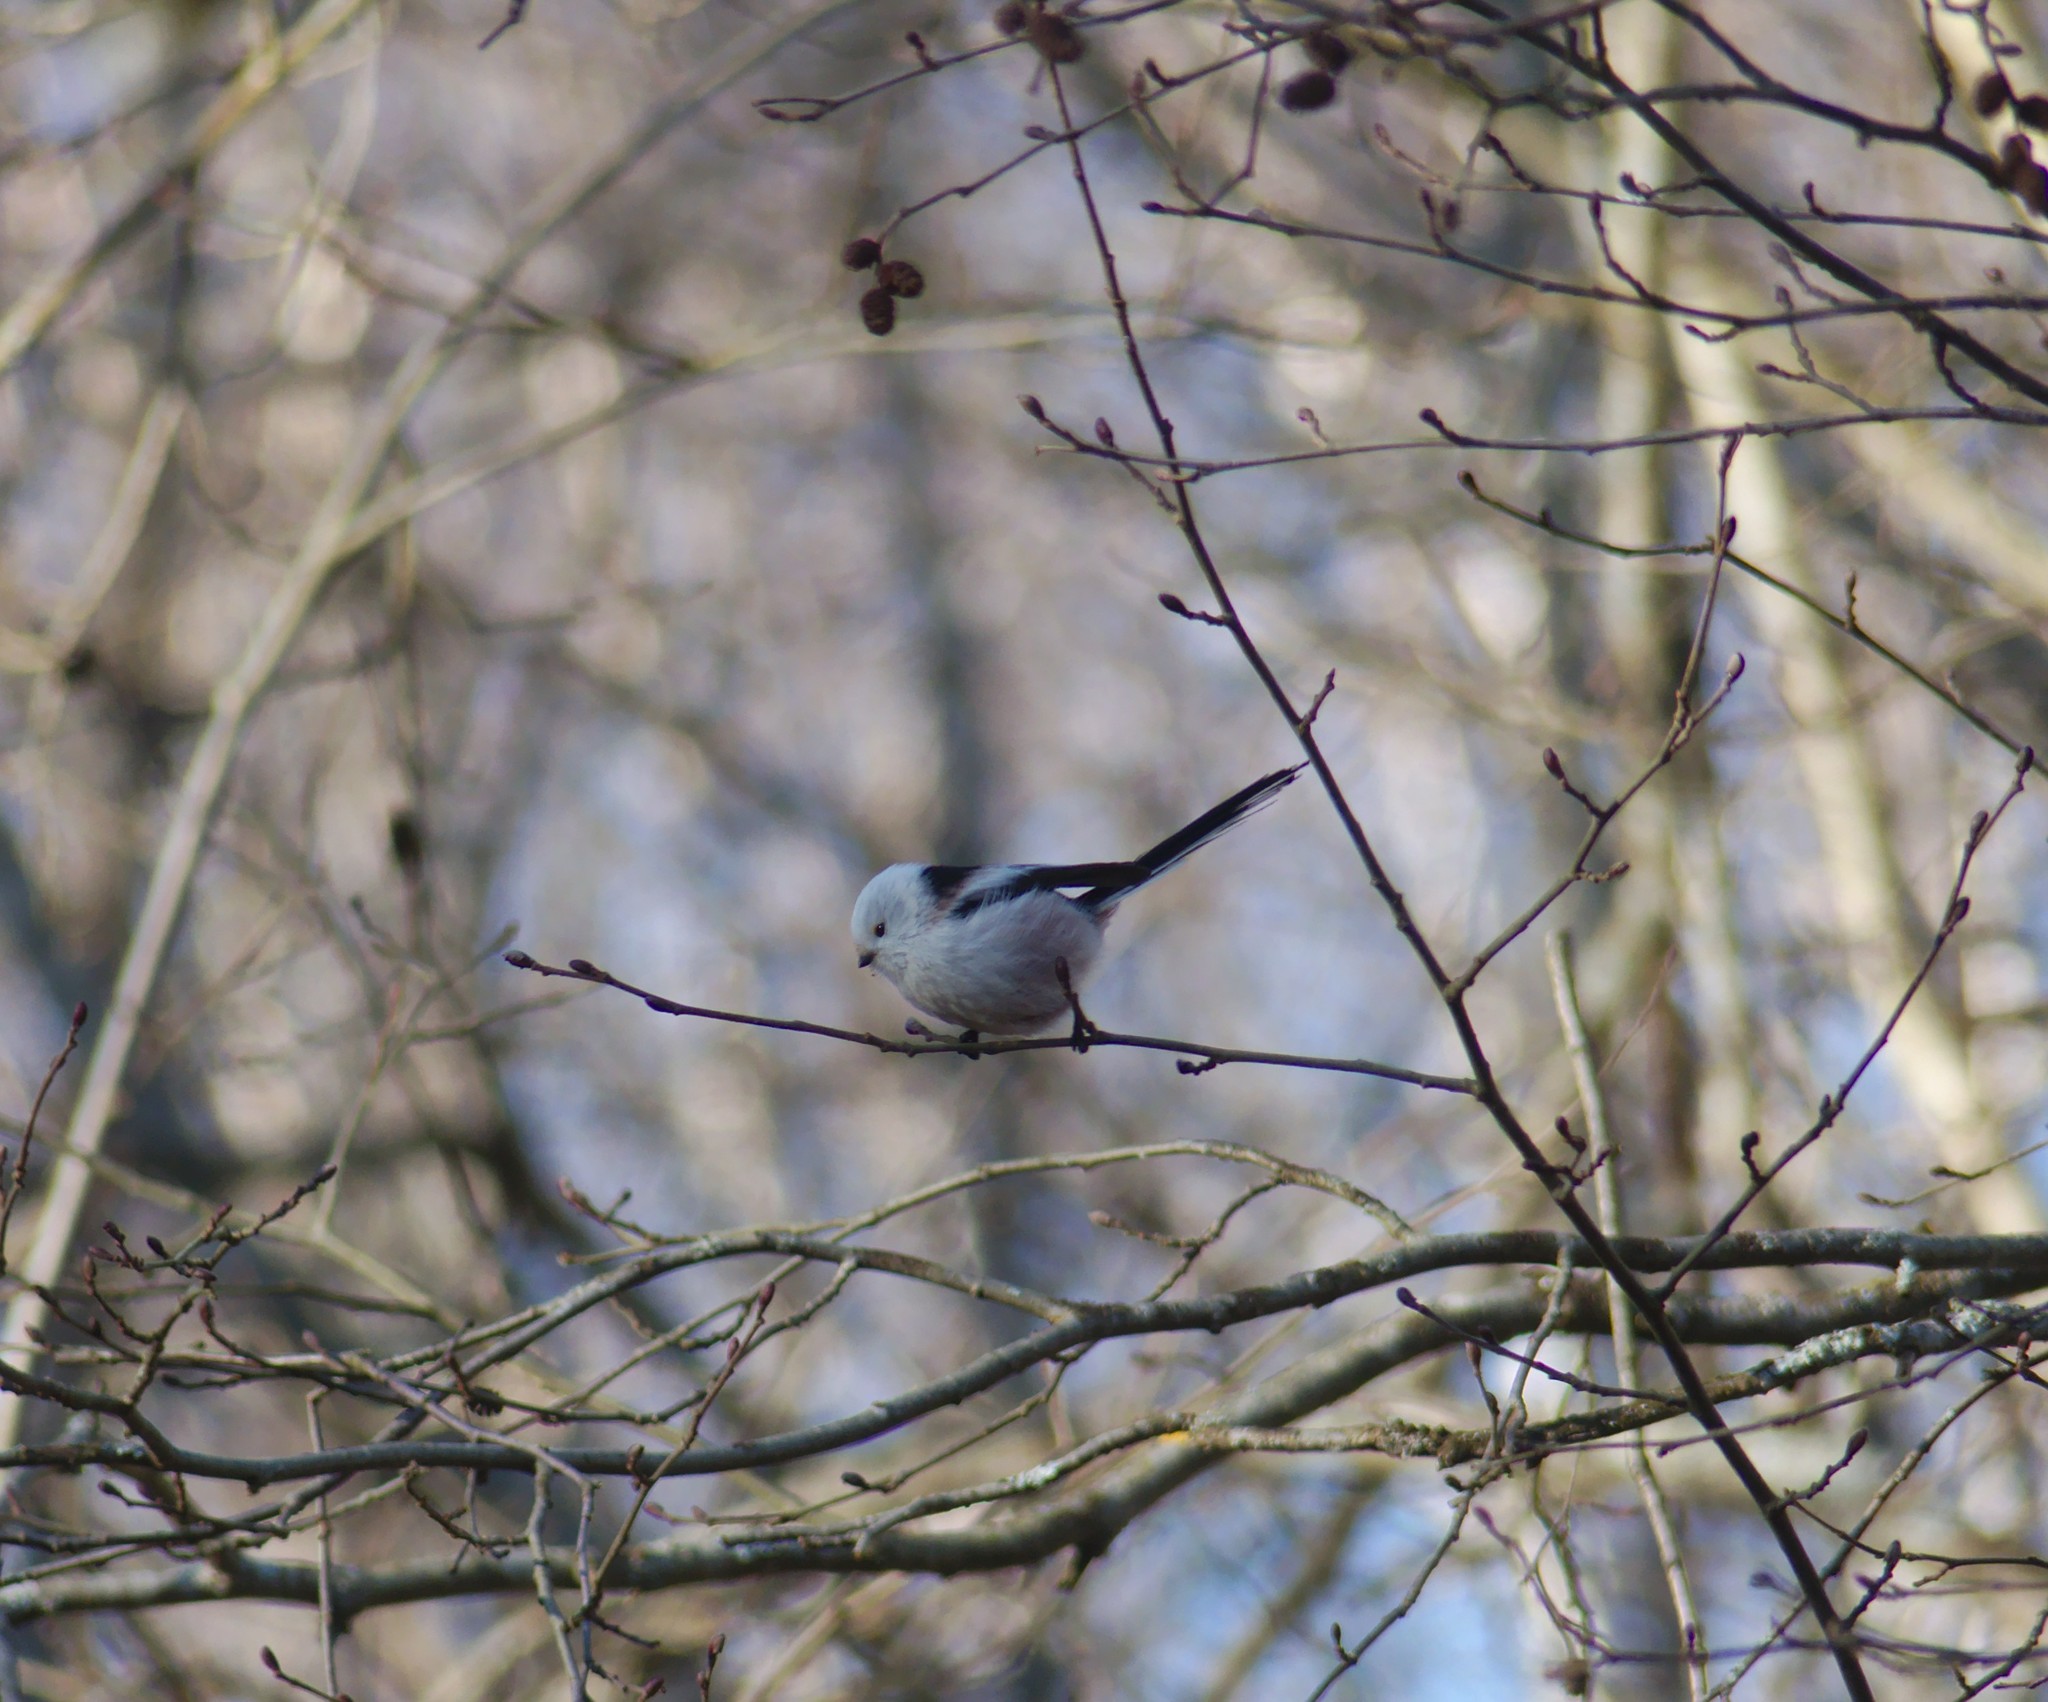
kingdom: Animalia
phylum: Chordata
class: Aves
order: Passeriformes
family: Aegithalidae
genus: Aegithalos
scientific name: Aegithalos caudatus
